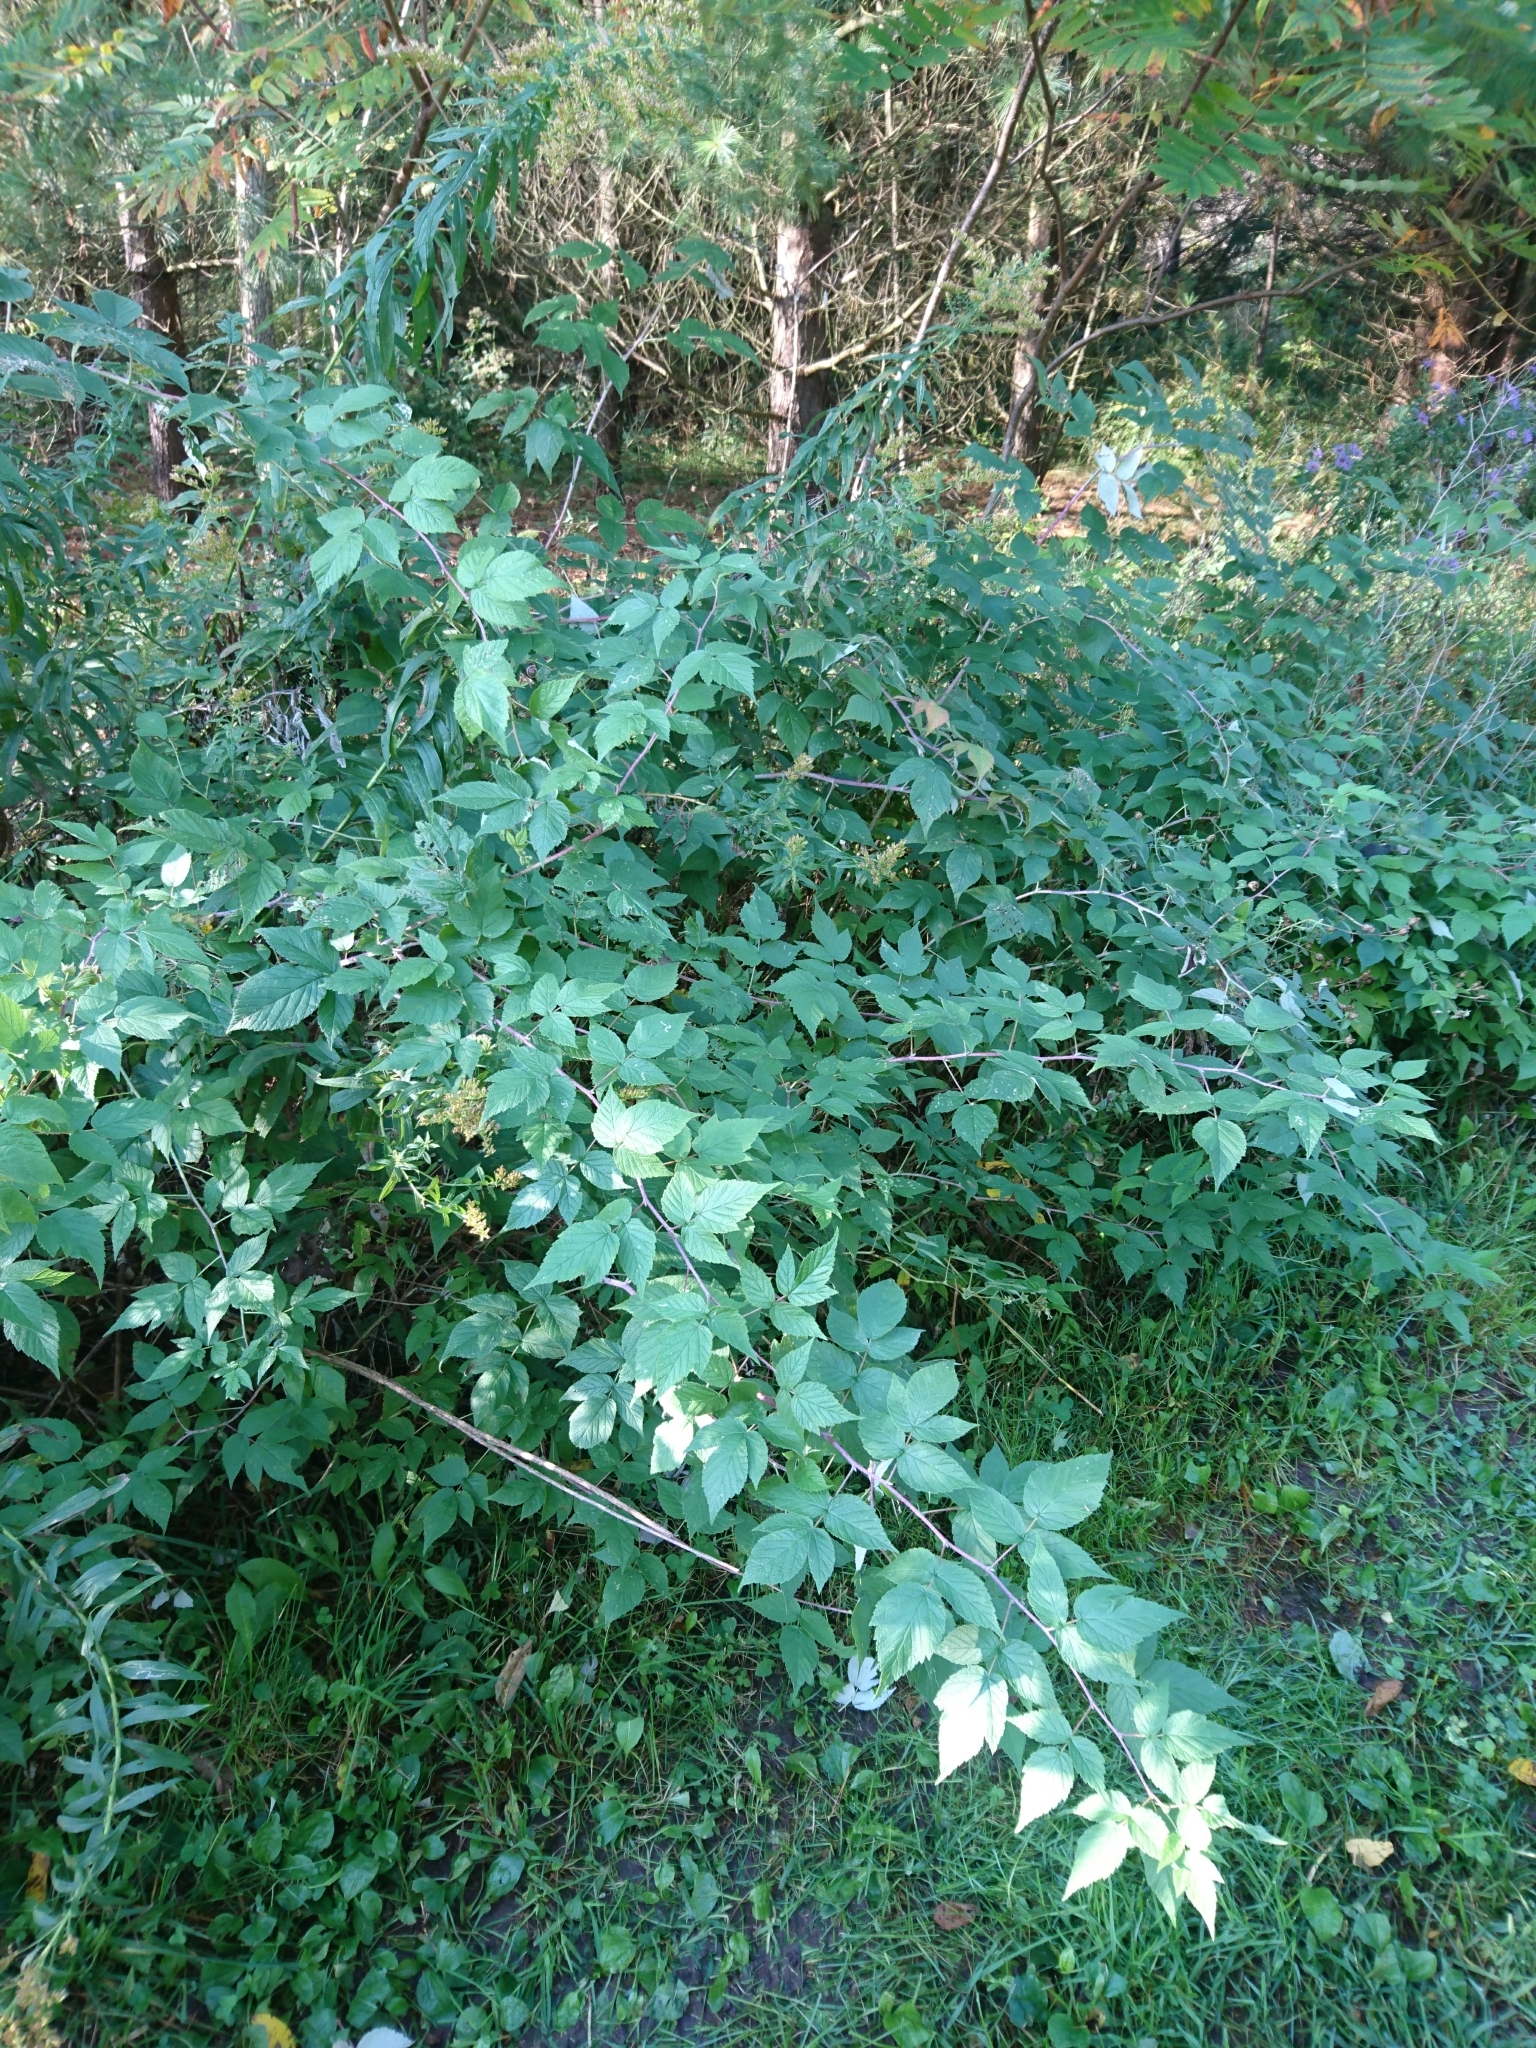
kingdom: Plantae
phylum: Tracheophyta
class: Magnoliopsida
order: Rosales
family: Rosaceae
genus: Rubus
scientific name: Rubus idaeus
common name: Raspberry
